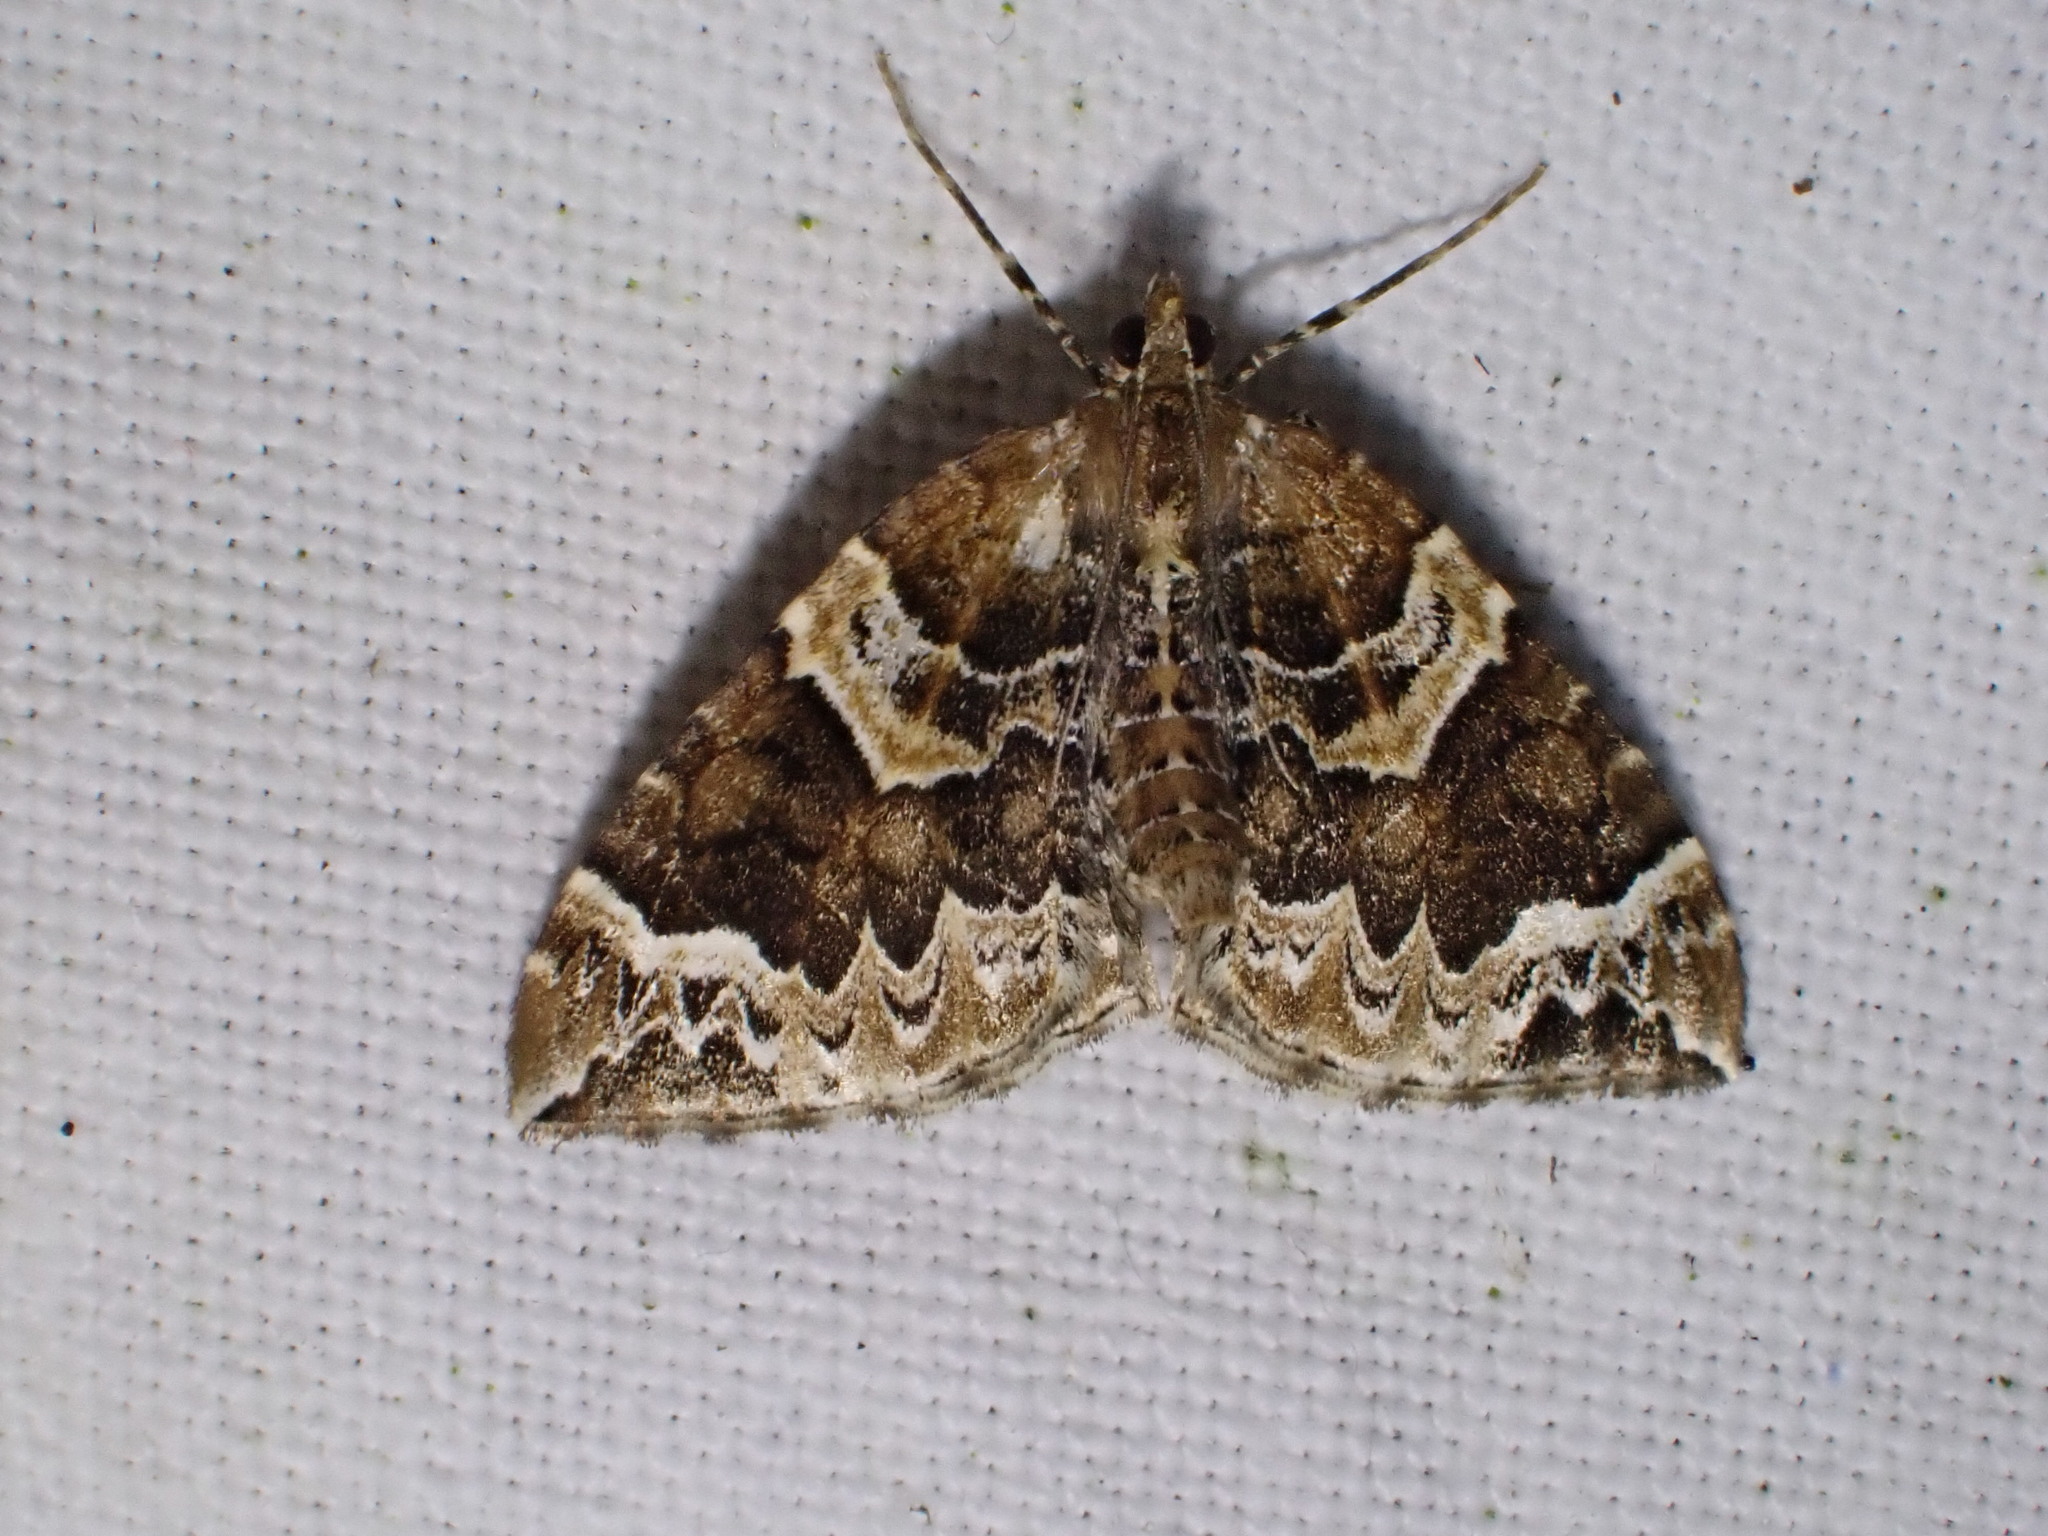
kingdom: Animalia
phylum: Arthropoda
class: Insecta
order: Lepidoptera
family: Geometridae
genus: Eulithis
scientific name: Eulithis prunata
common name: Phoenix
